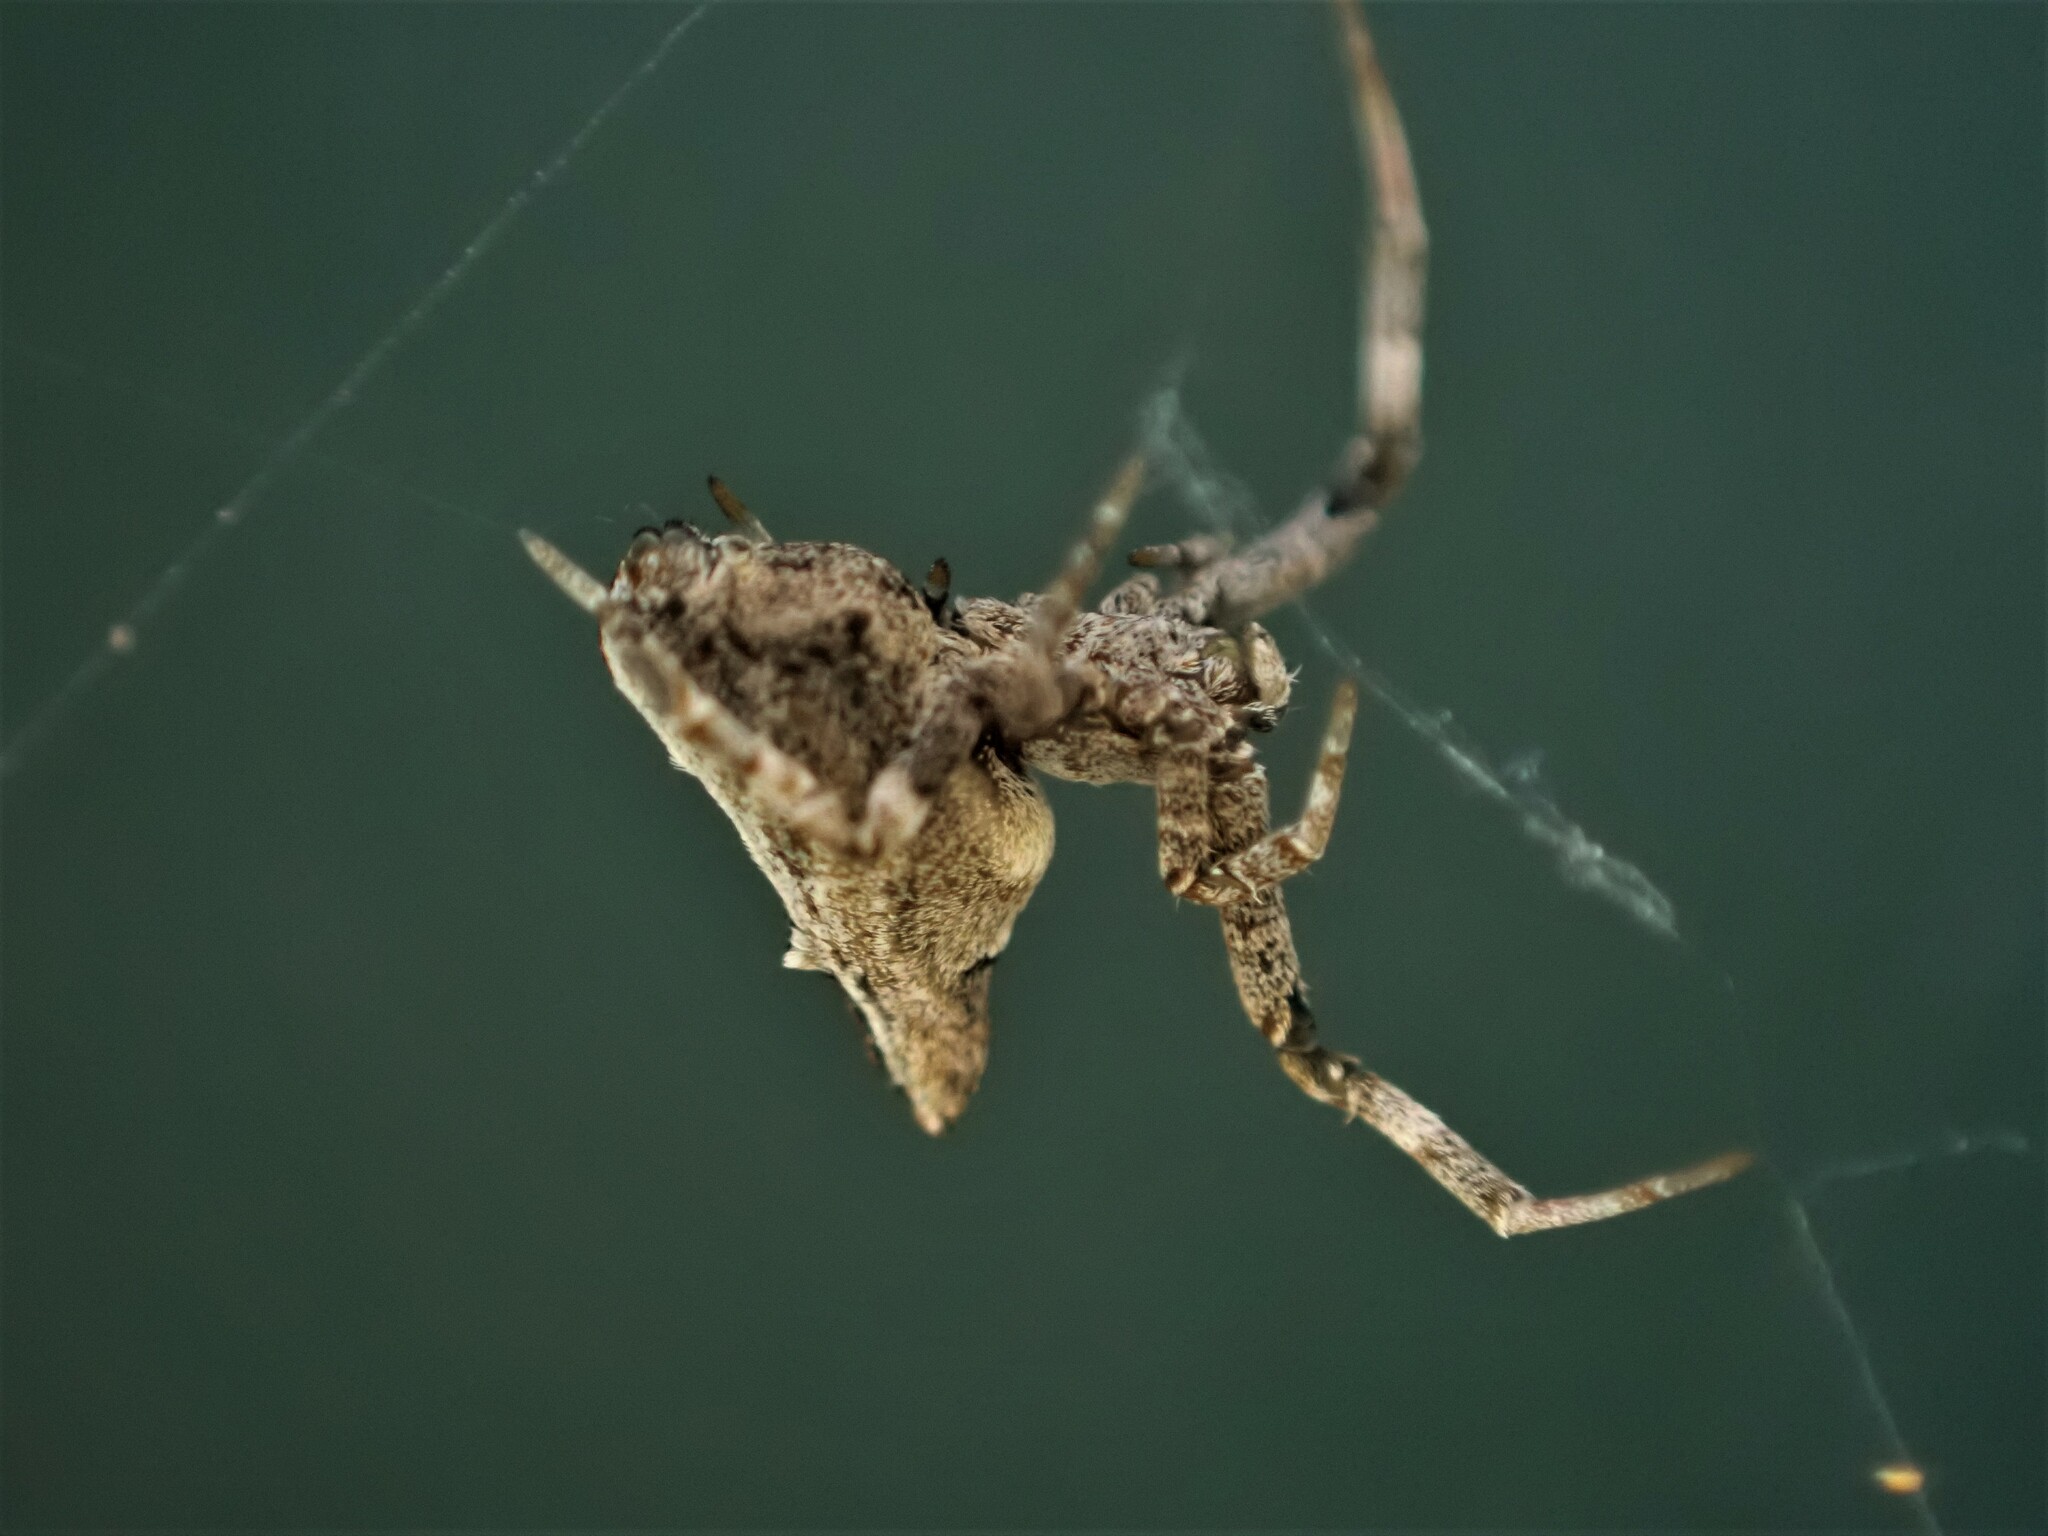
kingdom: Animalia
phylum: Arthropoda
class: Arachnida
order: Araneae
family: Uloboridae
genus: Philoponella
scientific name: Philoponella congregabilis
